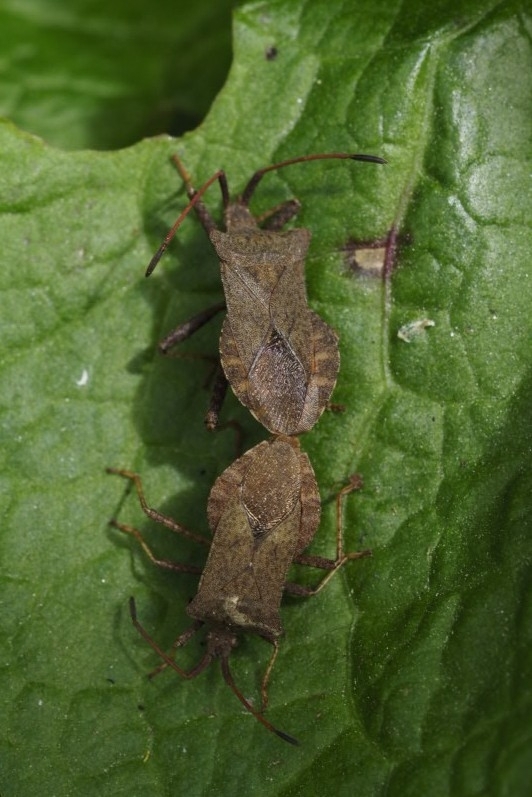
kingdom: Animalia
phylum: Arthropoda
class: Insecta
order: Hemiptera
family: Coreidae
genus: Coreus
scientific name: Coreus marginatus
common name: Dock bug
